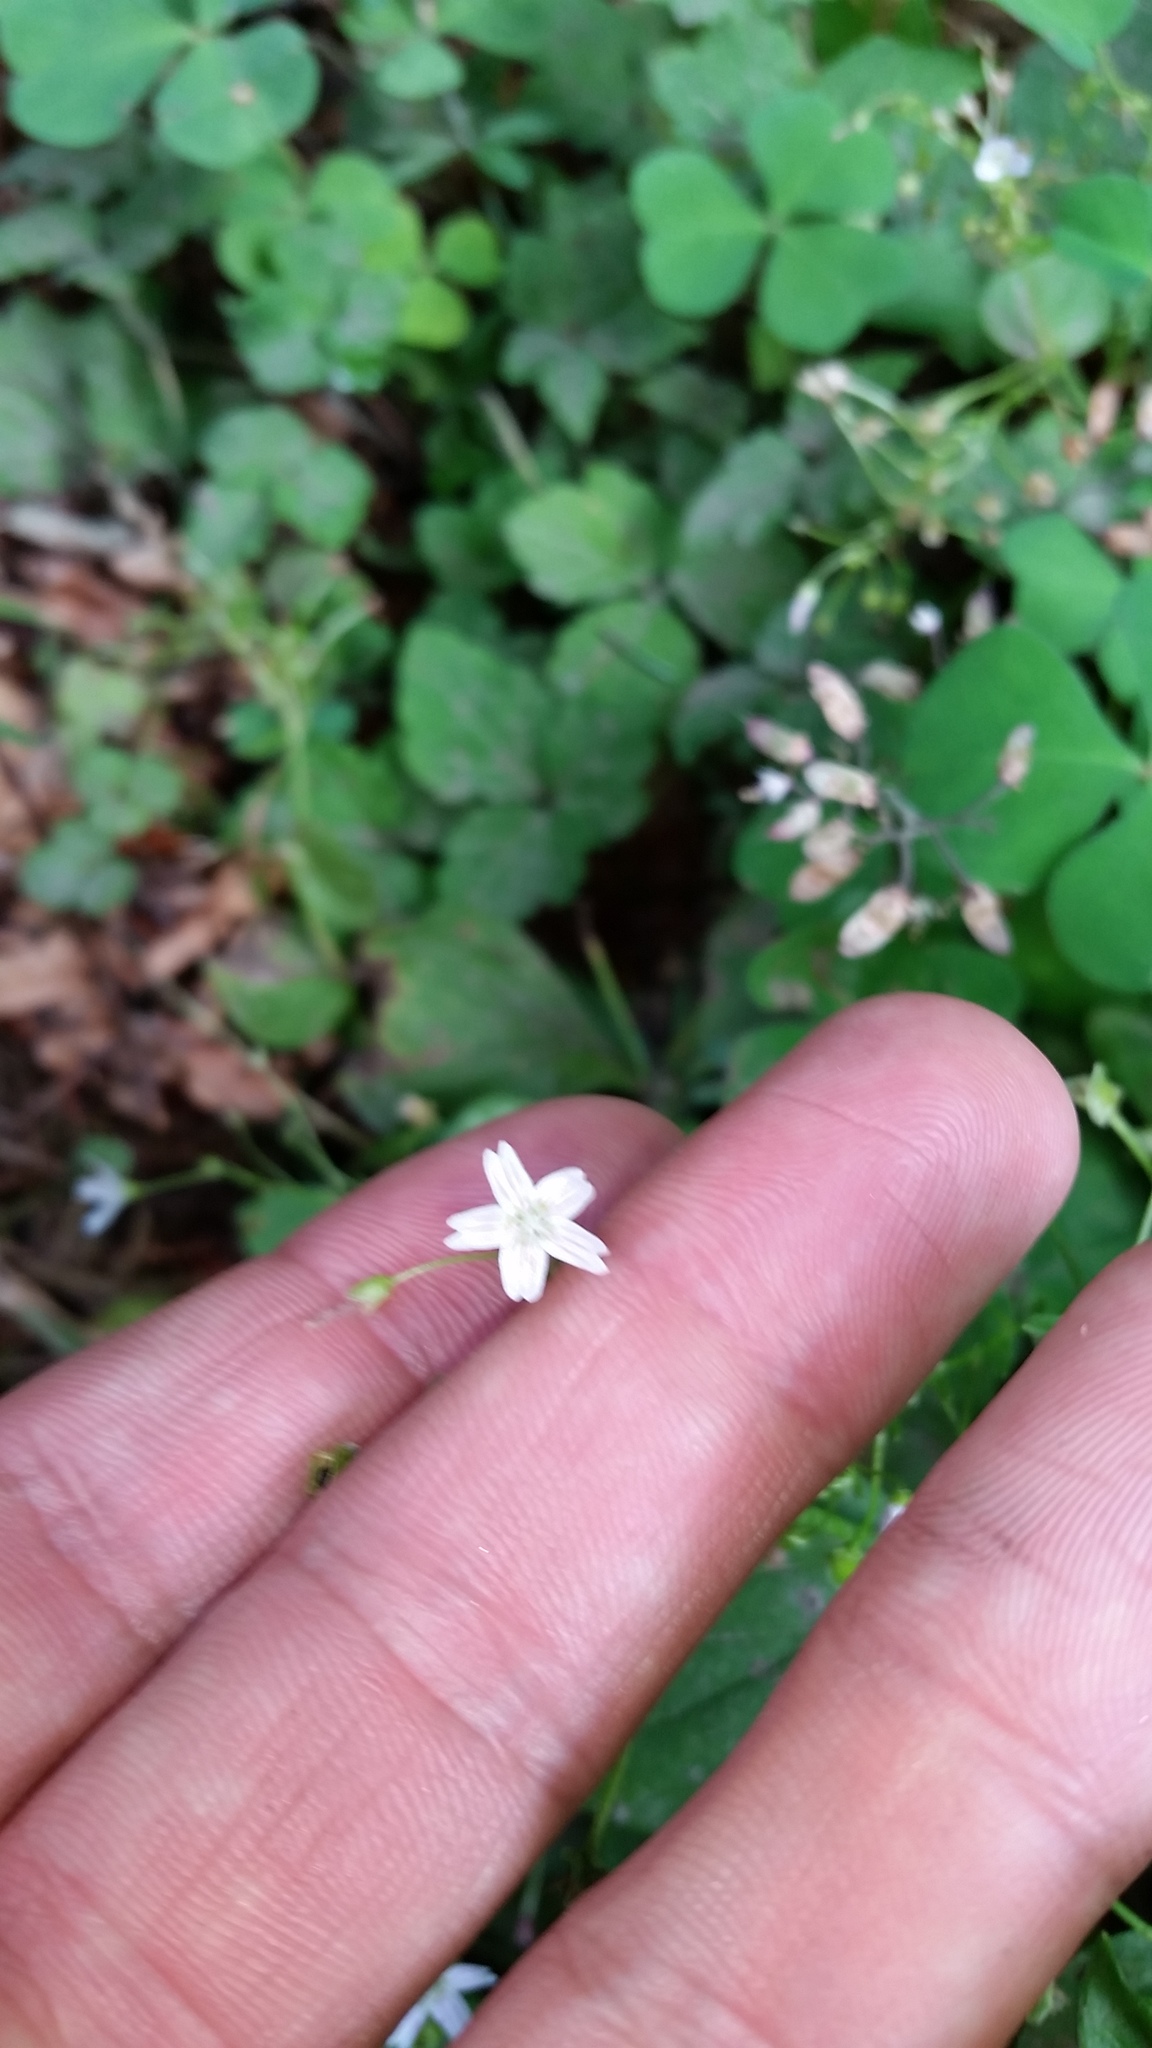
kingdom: Plantae
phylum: Tracheophyta
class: Magnoliopsida
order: Caryophyllales
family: Montiaceae
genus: Claytonia
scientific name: Claytonia sibirica
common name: Pink purslane
